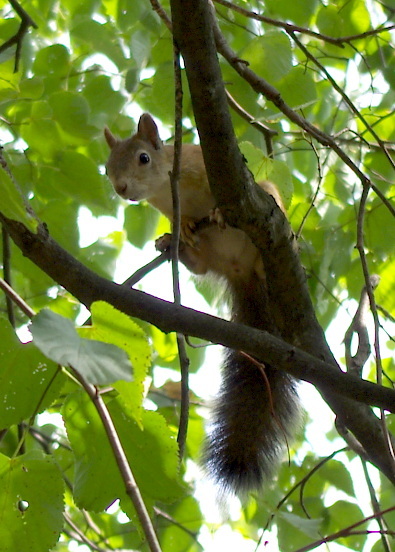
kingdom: Animalia
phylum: Chordata
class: Mammalia
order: Rodentia
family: Sciuridae
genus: Sciurus
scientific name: Sciurus vulgaris
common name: Eurasian red squirrel
